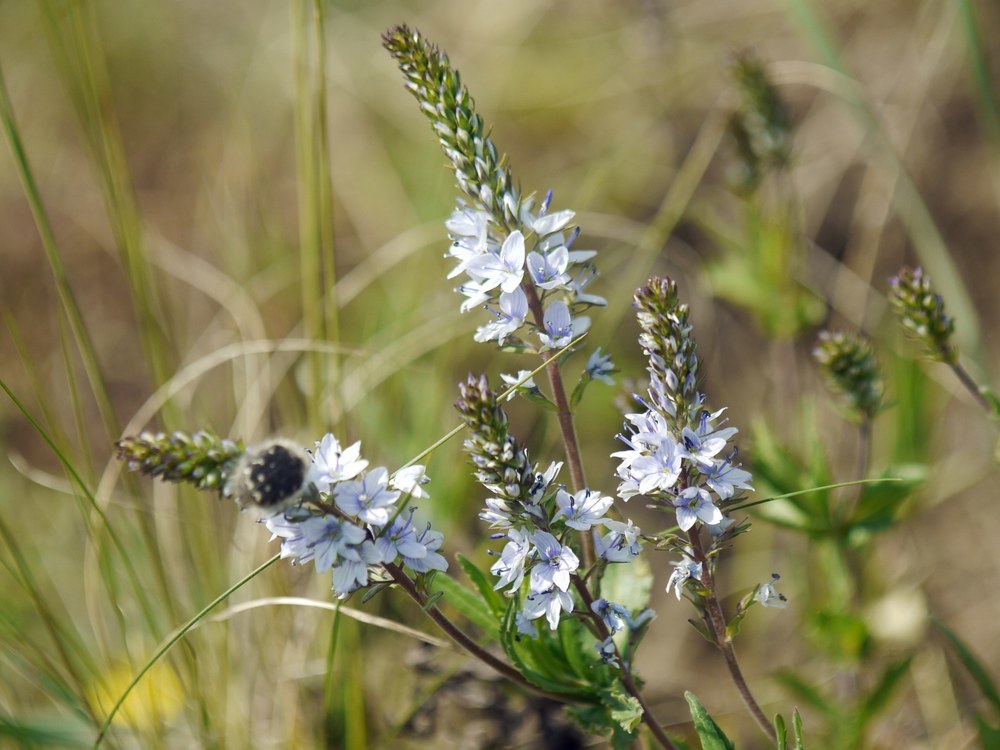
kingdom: Plantae
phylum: Tracheophyta
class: Magnoliopsida
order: Lamiales
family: Plantaginaceae
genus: Veronica
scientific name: Veronica austriaca
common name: Large speedwell
